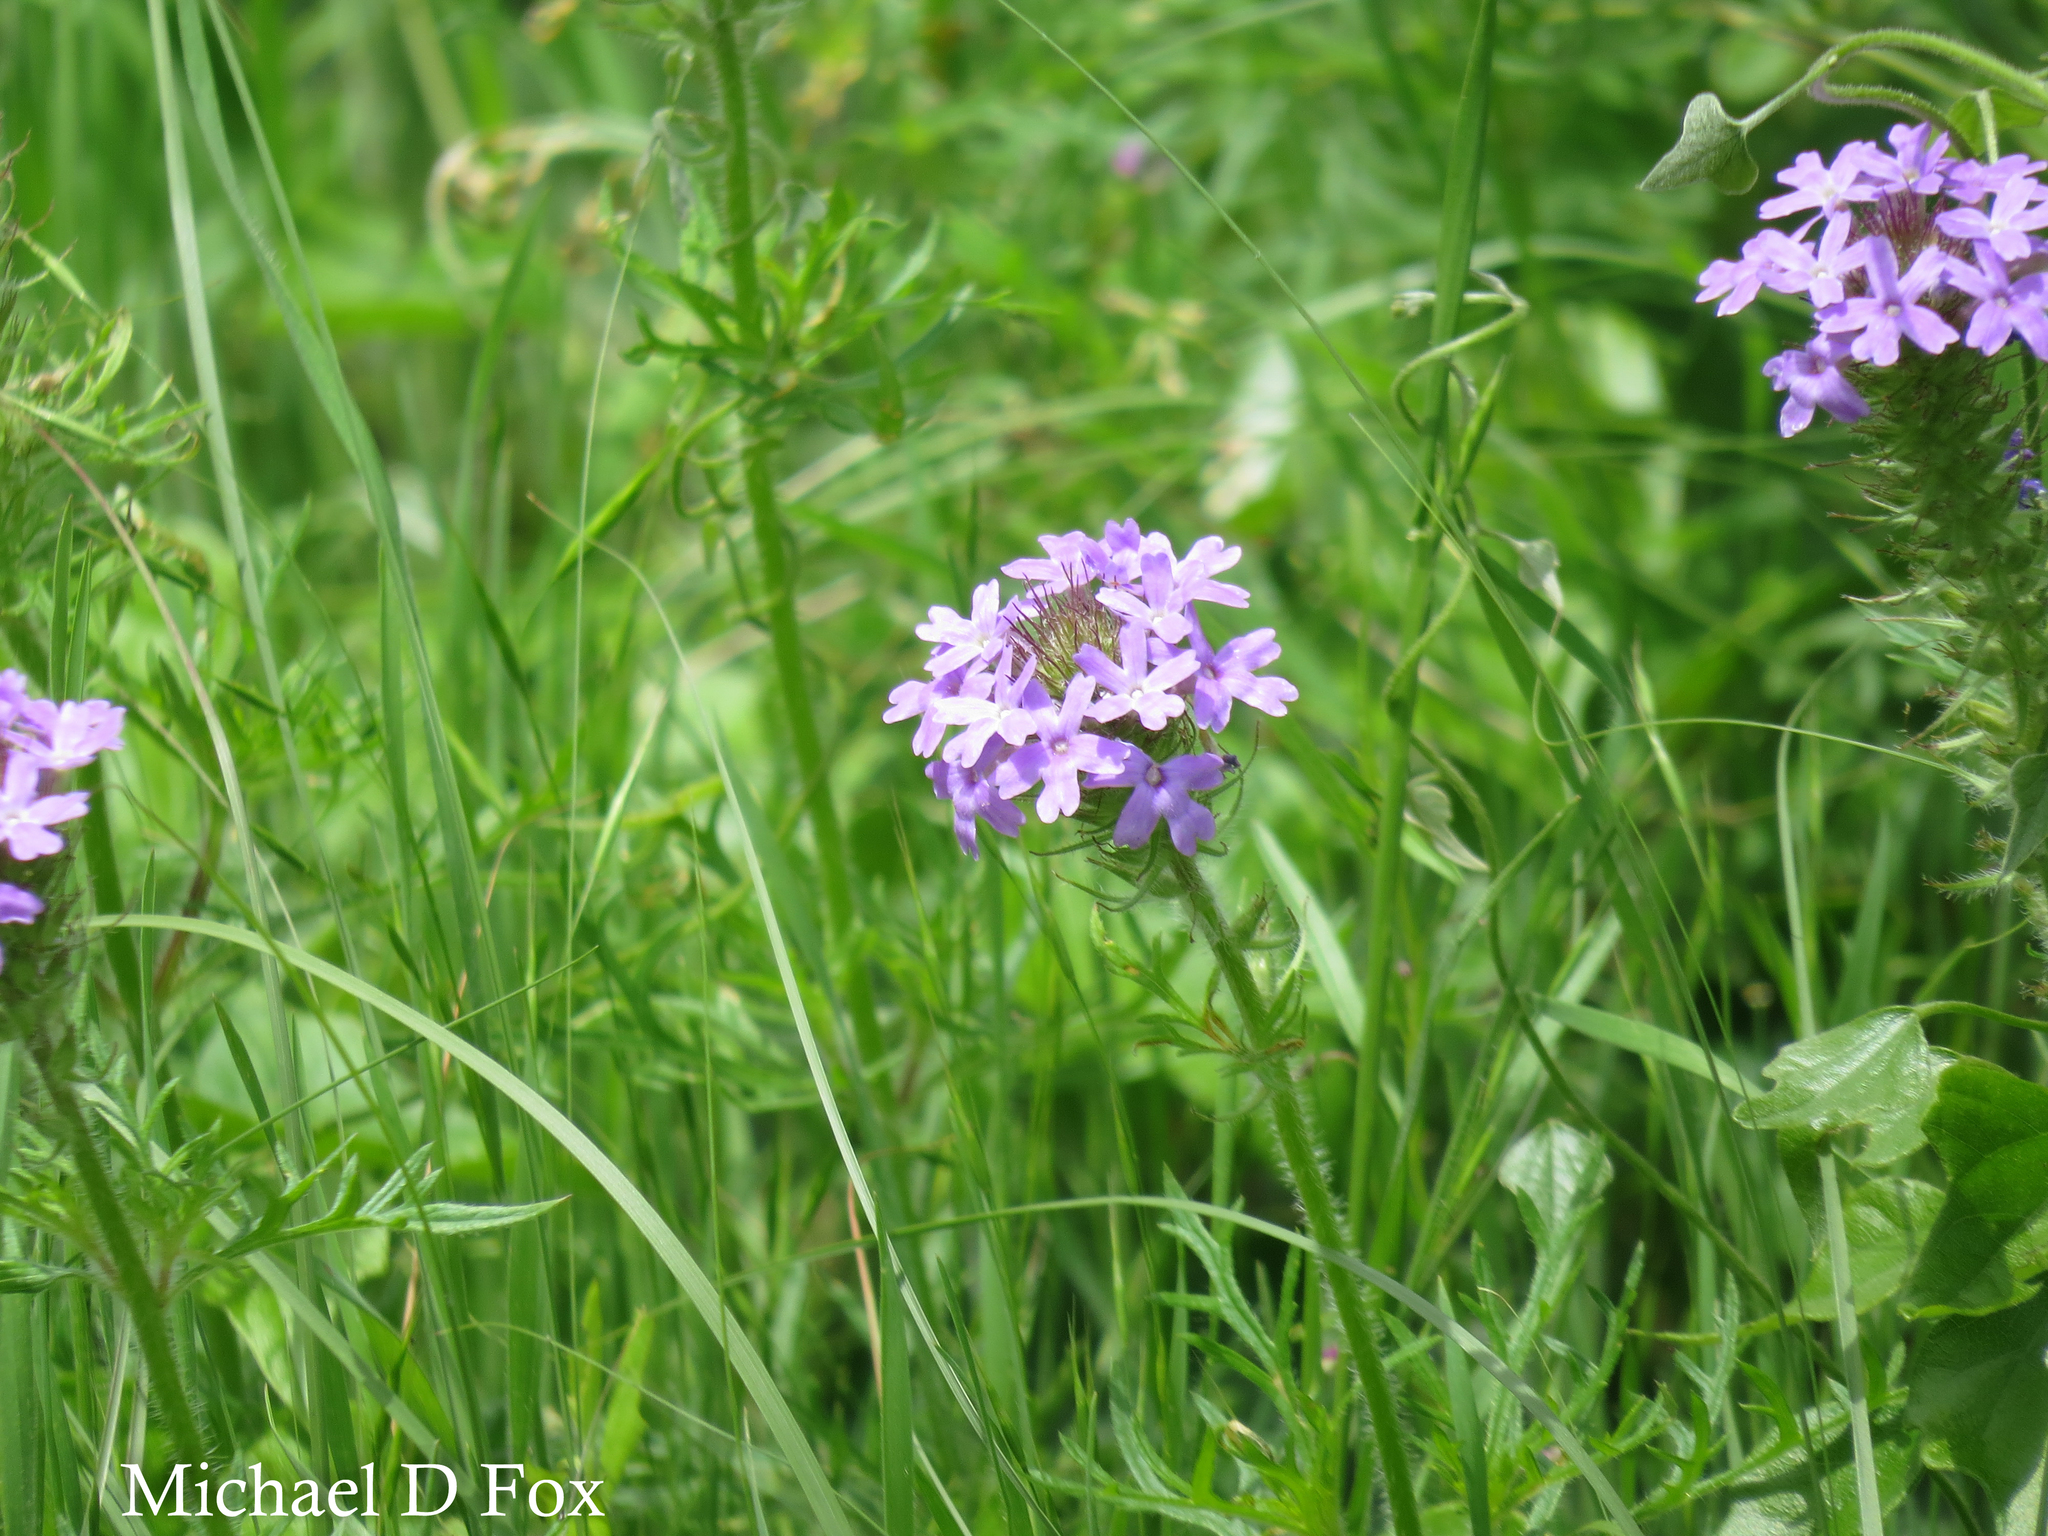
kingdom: Plantae
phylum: Tracheophyta
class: Magnoliopsida
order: Lamiales
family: Verbenaceae
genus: Verbena
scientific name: Verbena bipinnatifida
